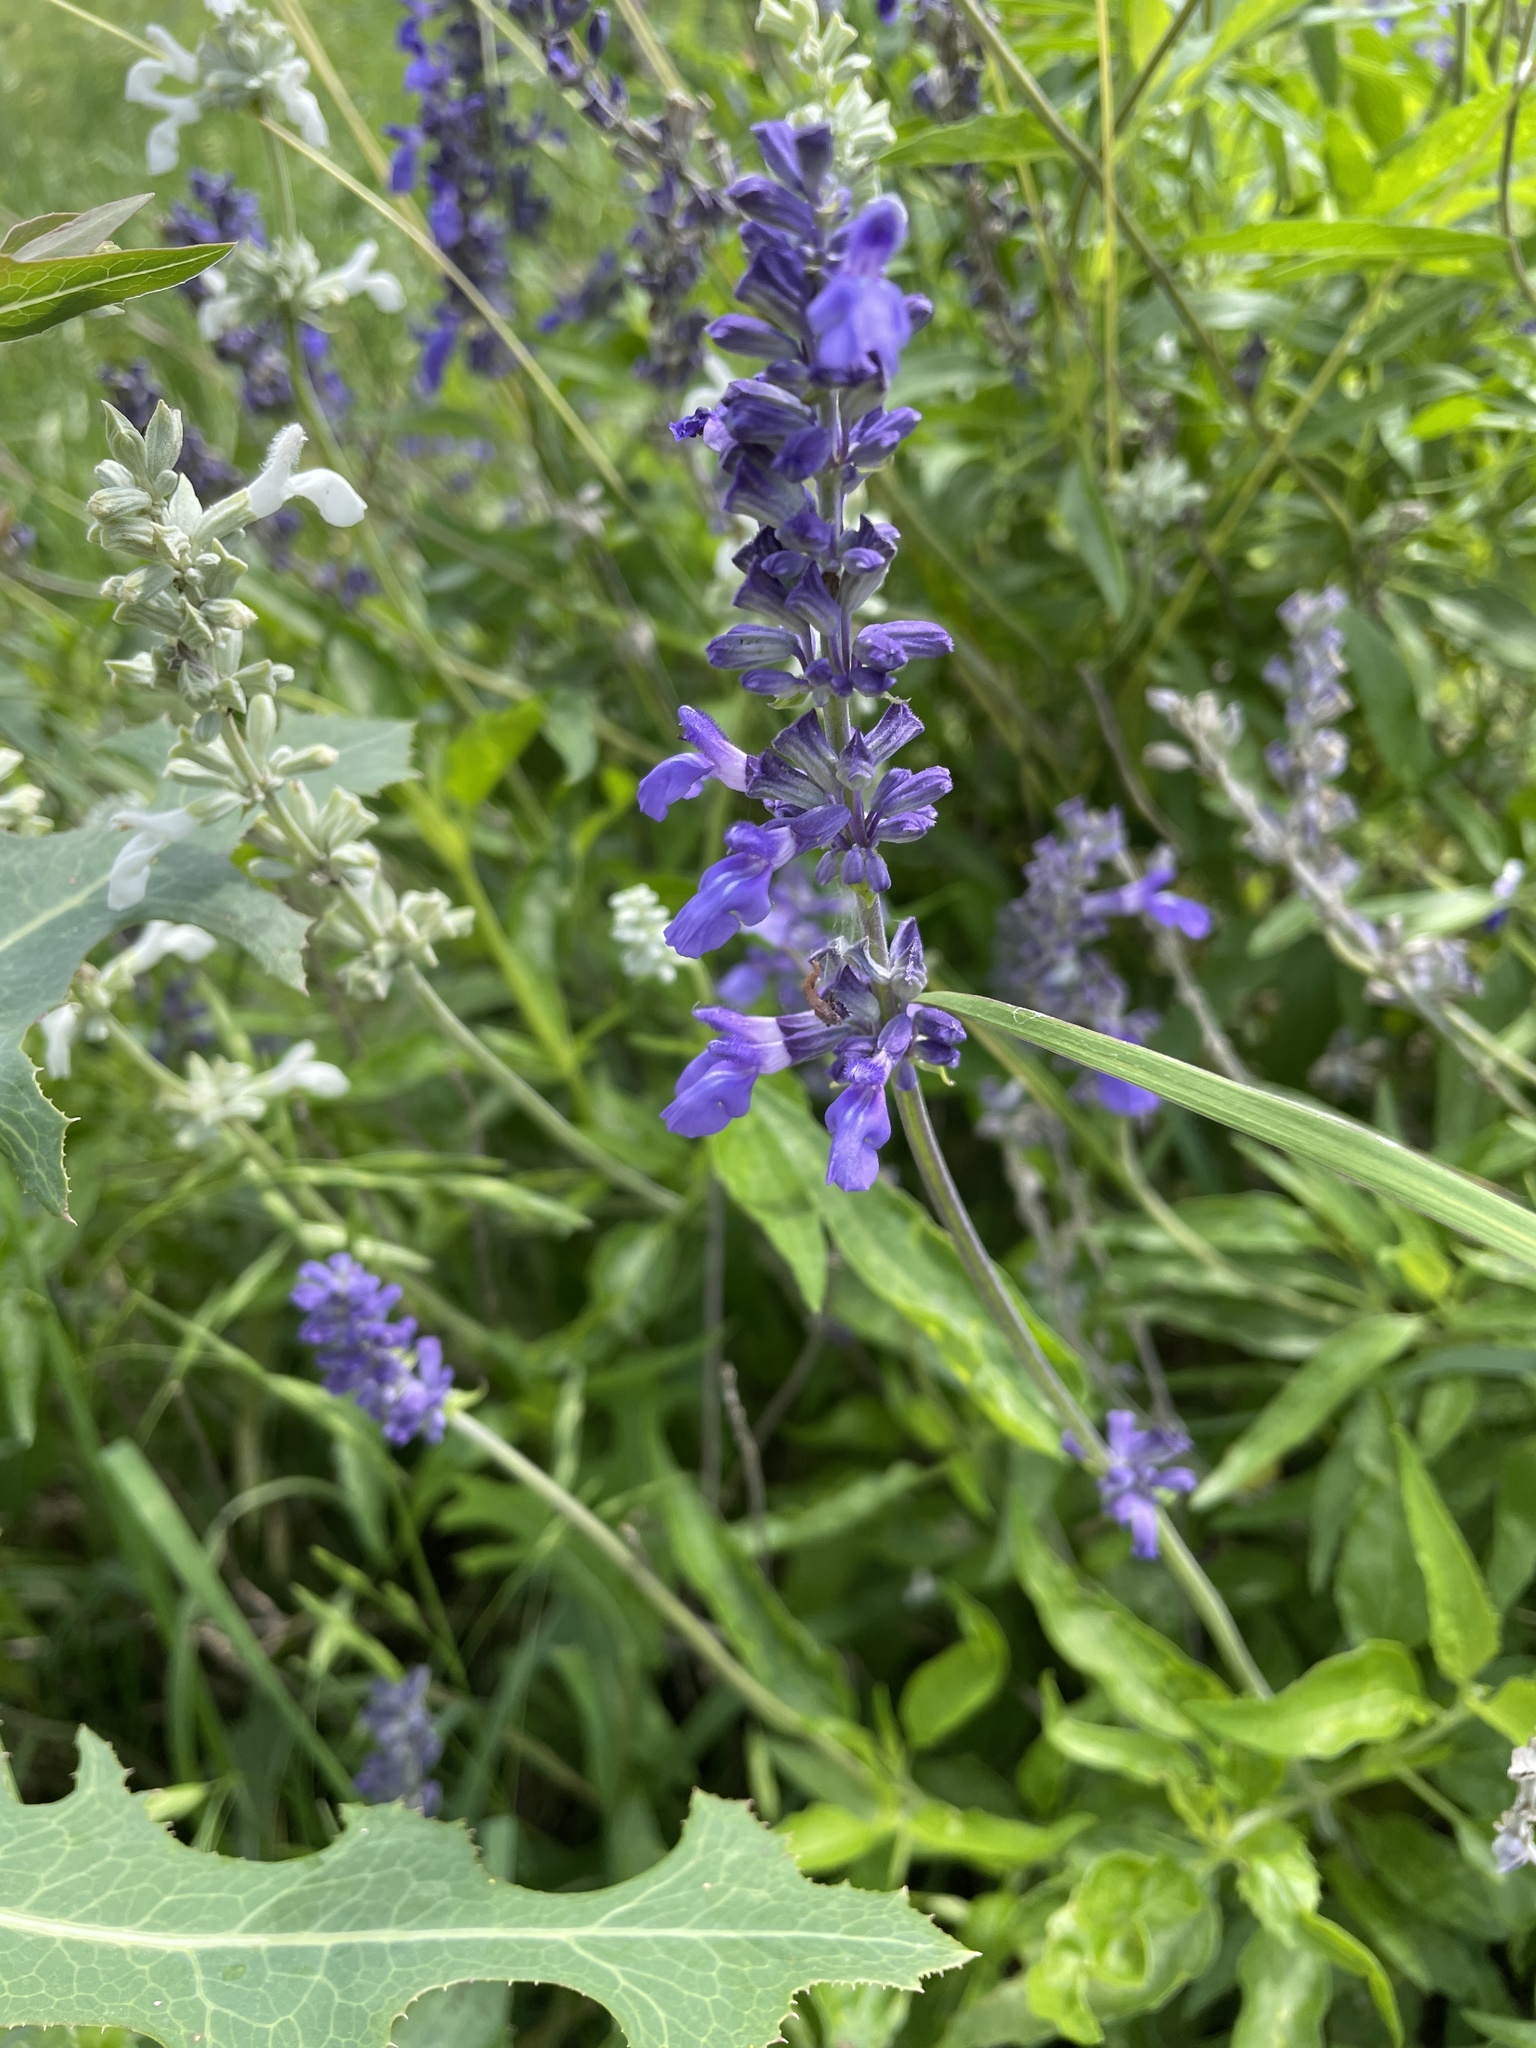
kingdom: Plantae
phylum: Tracheophyta
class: Magnoliopsida
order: Lamiales
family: Lamiaceae
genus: Salvia
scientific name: Salvia farinacea
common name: Mealy sage
